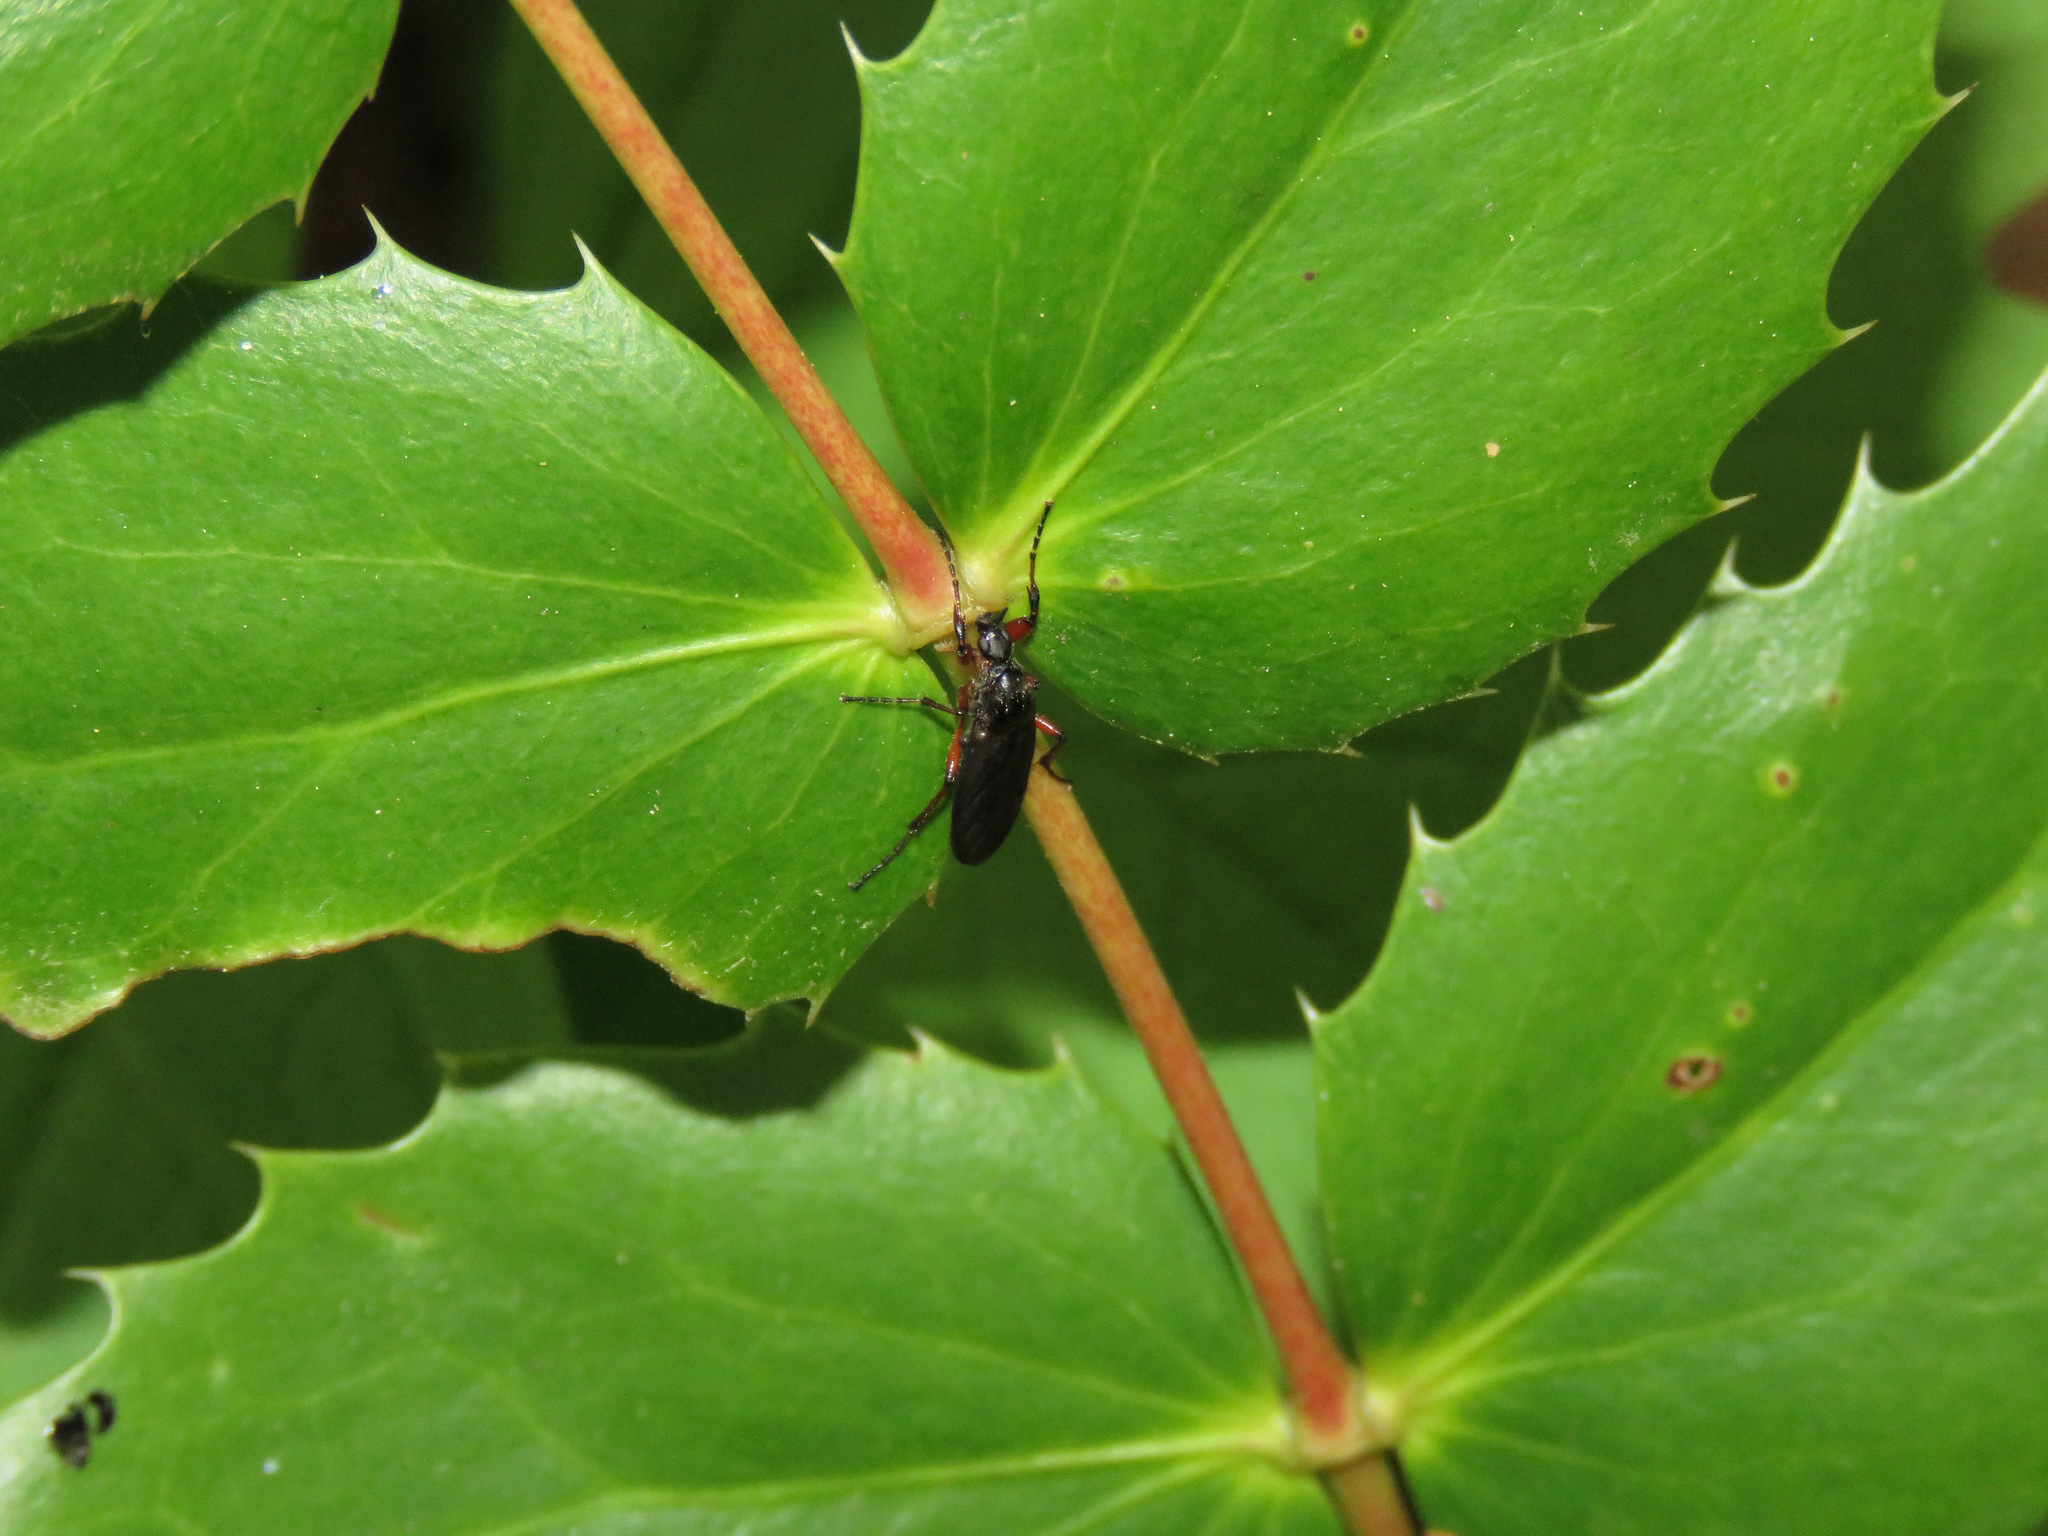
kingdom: Animalia
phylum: Arthropoda
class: Insecta
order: Diptera
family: Bibionidae
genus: Bibio
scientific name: Bibio
